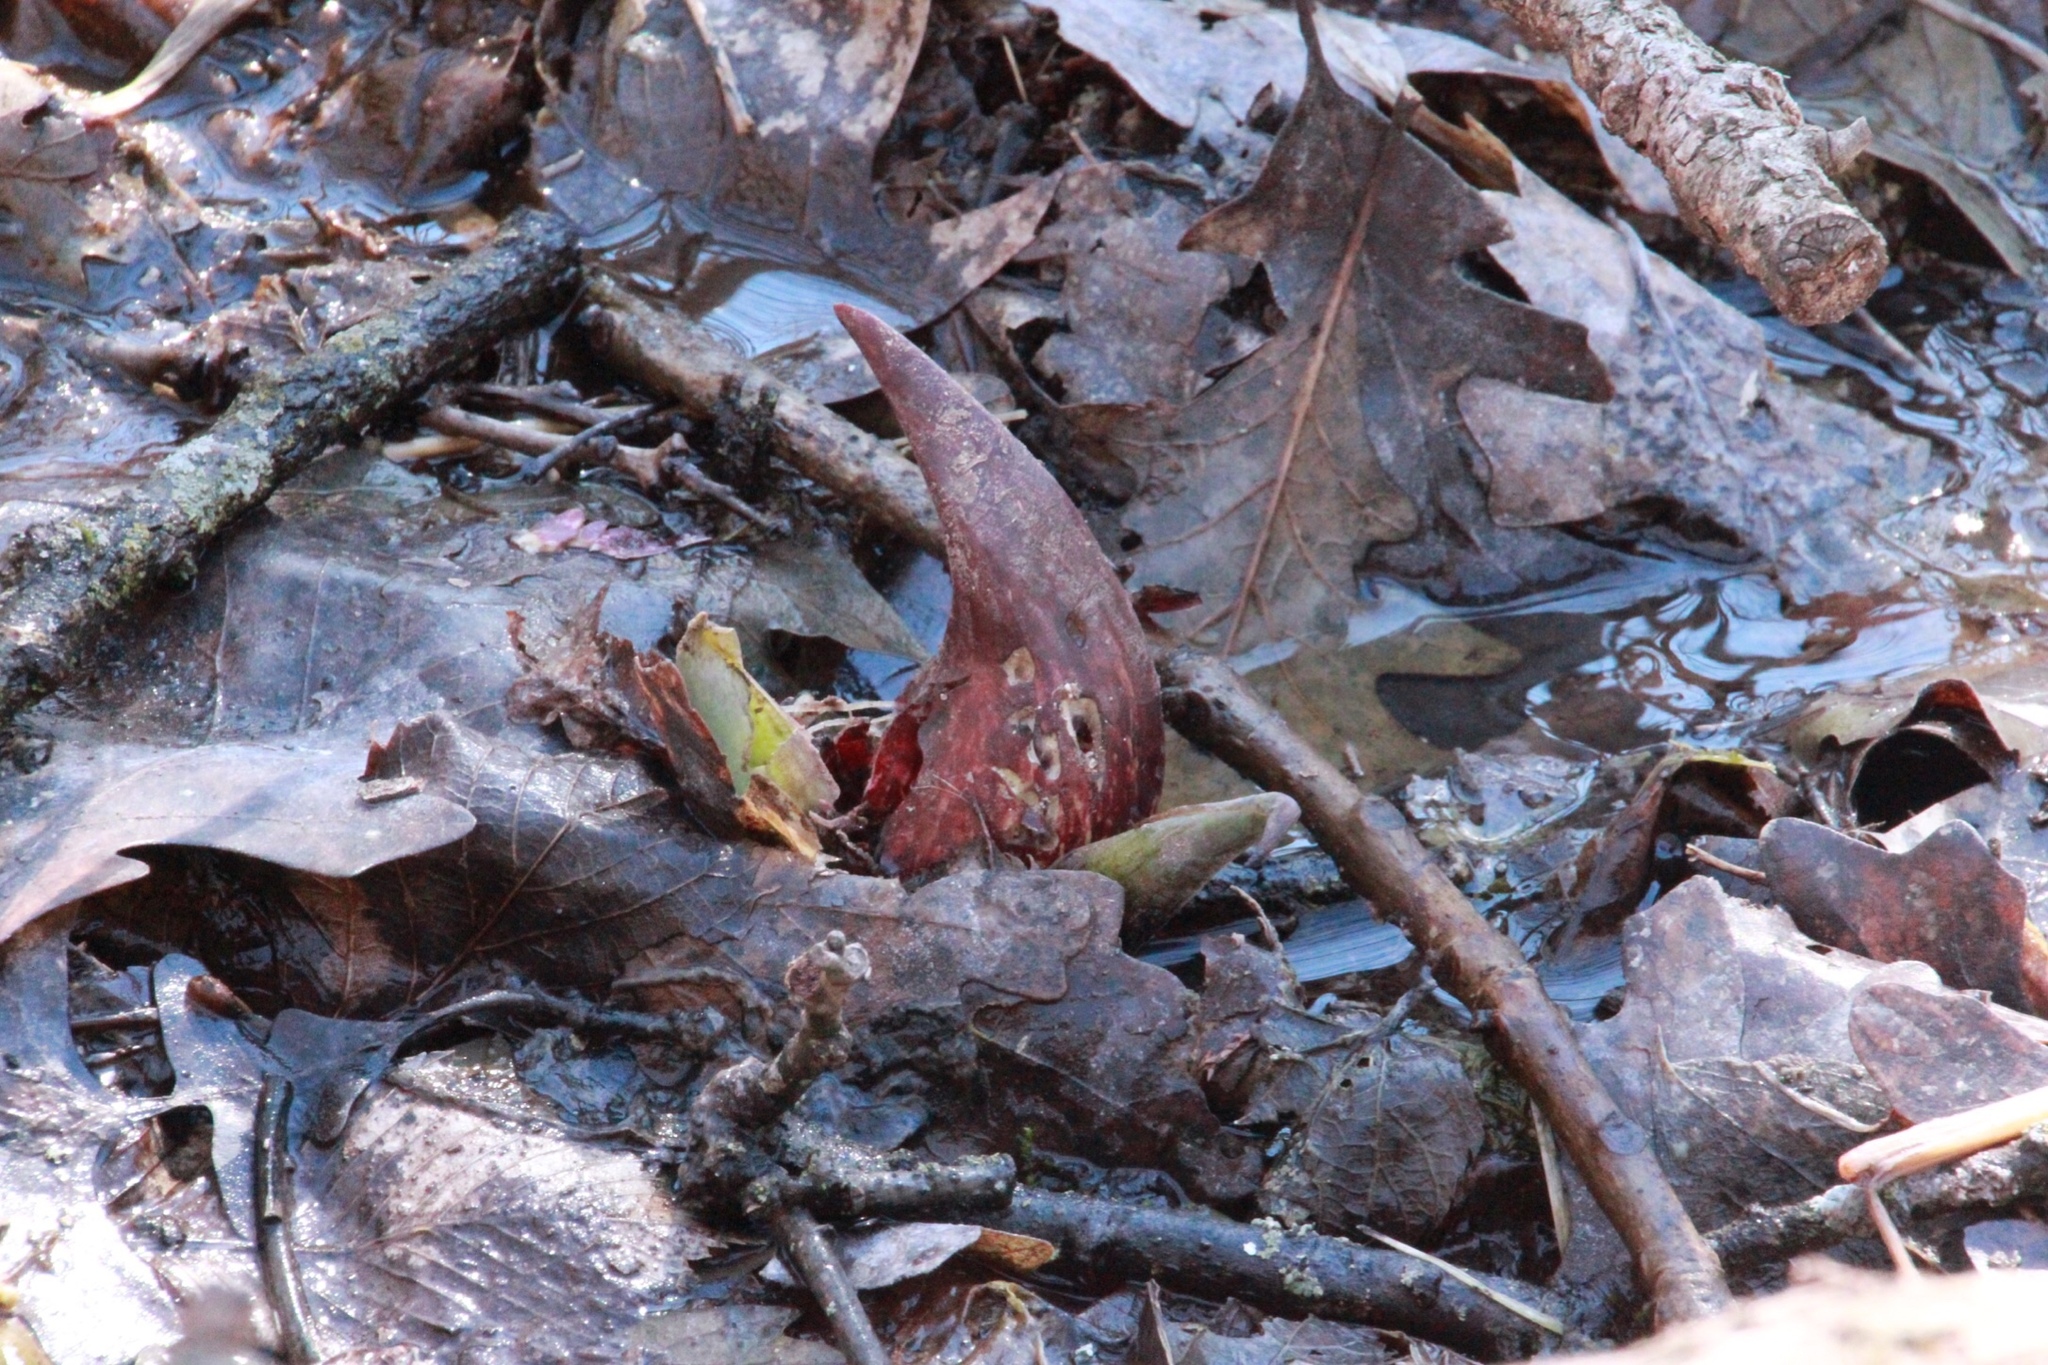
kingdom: Plantae
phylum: Tracheophyta
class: Liliopsida
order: Alismatales
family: Araceae
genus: Symplocarpus
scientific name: Symplocarpus foetidus
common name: Eastern skunk cabbage
